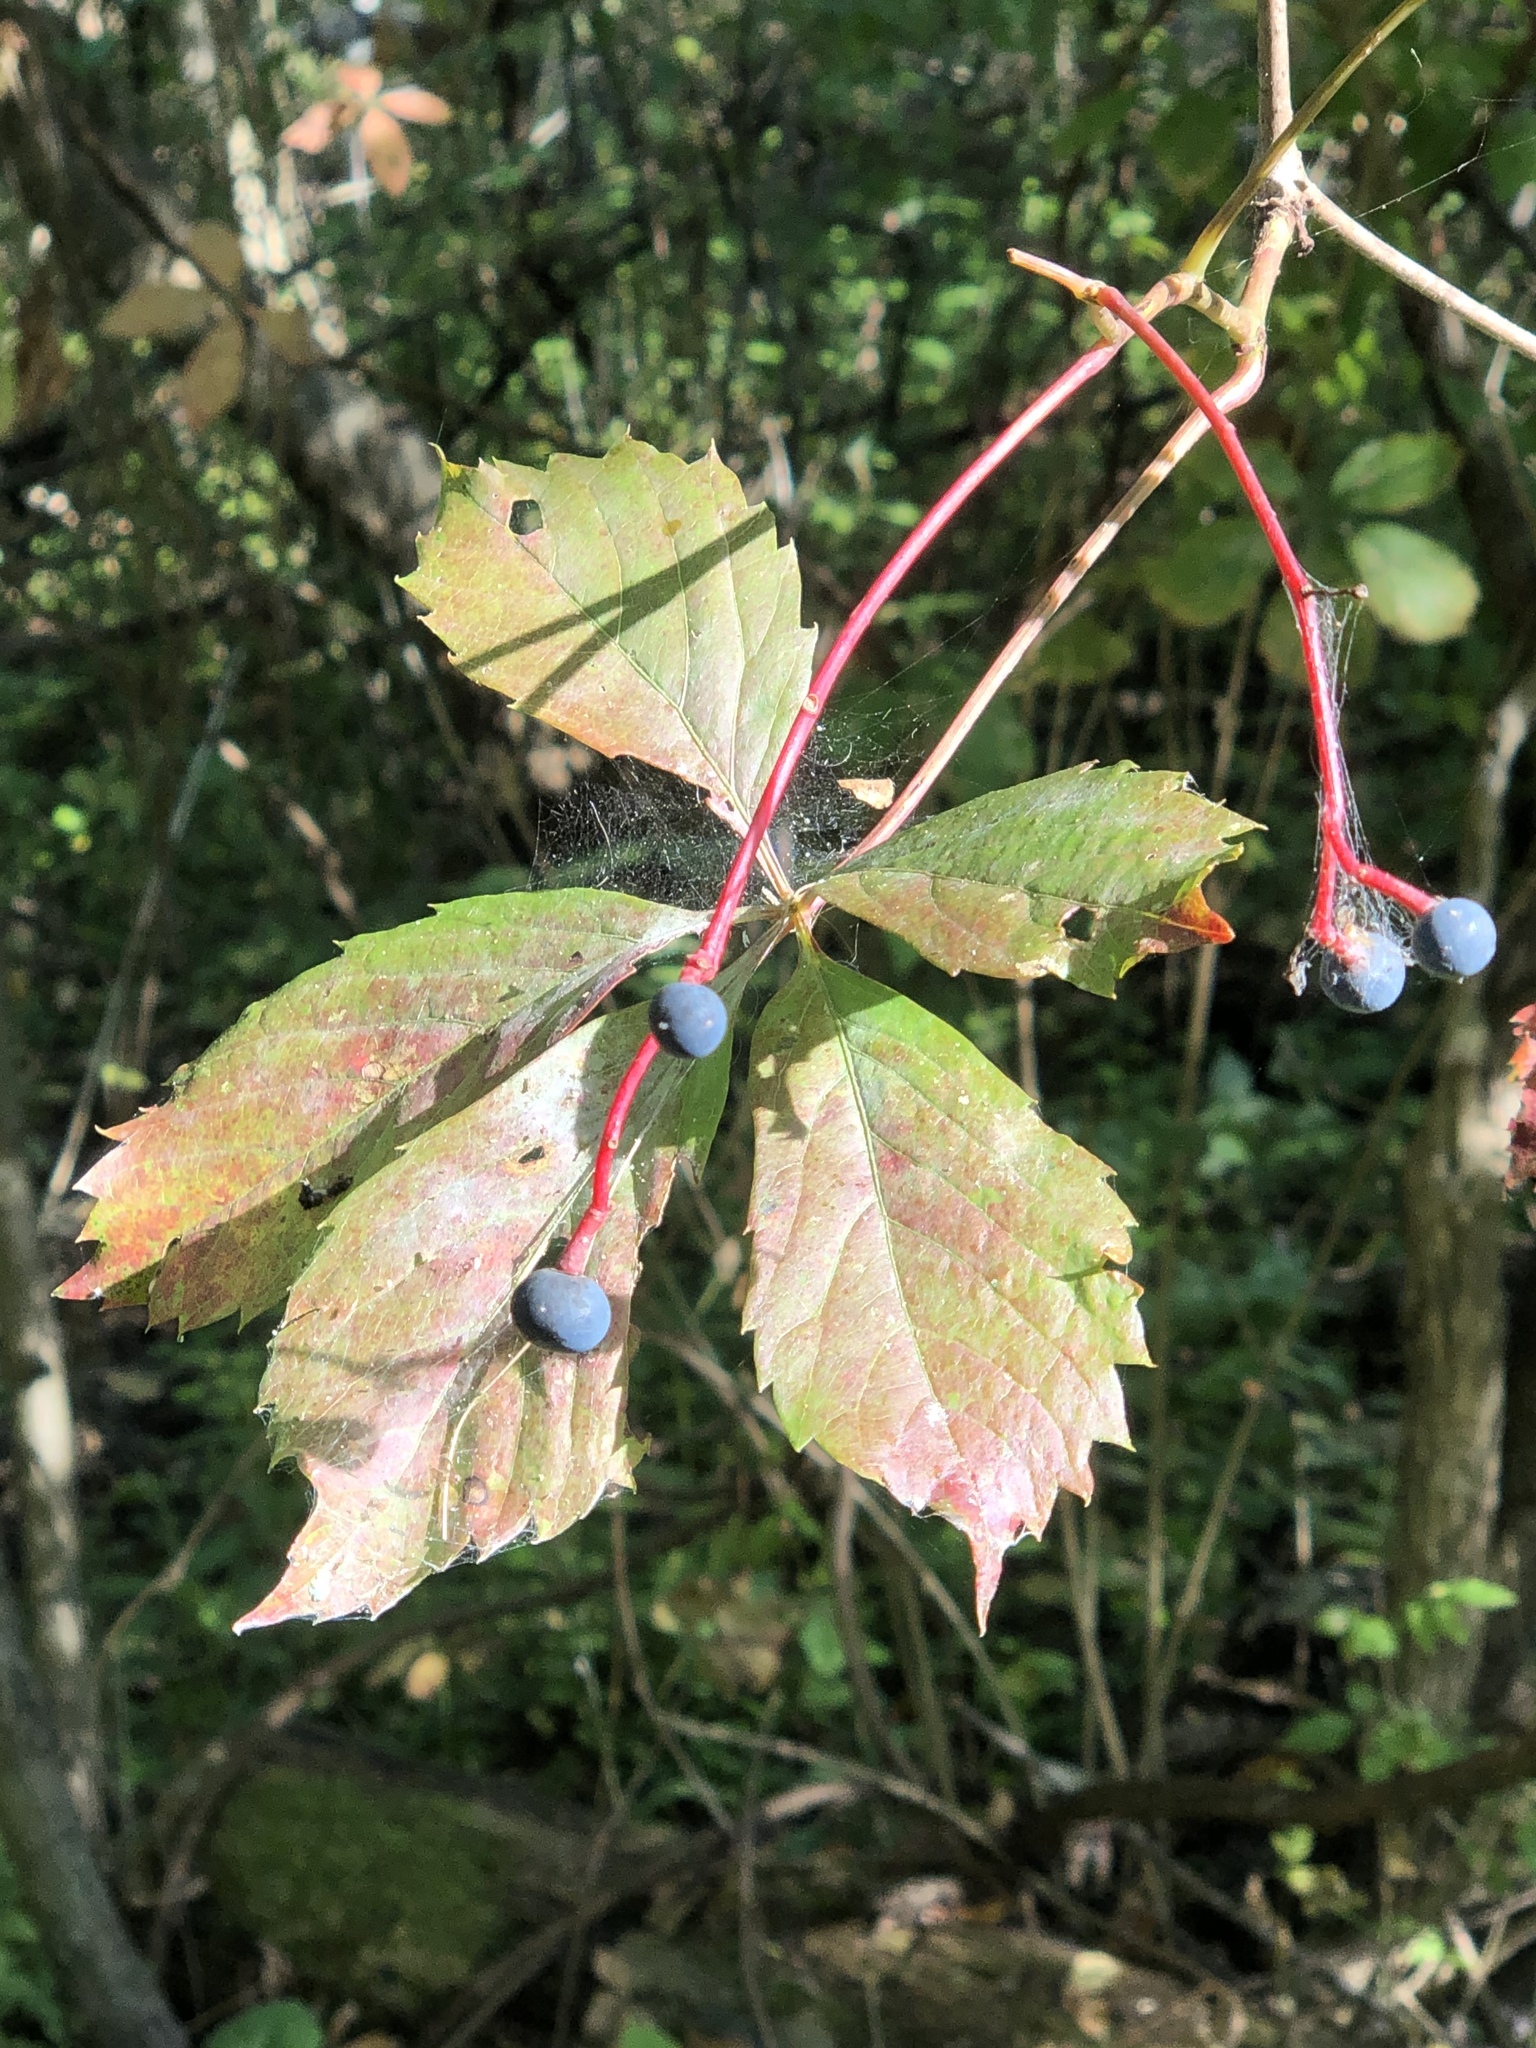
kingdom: Plantae
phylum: Tracheophyta
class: Magnoliopsida
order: Vitales
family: Vitaceae
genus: Parthenocissus
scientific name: Parthenocissus quinquefolia
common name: Virginia-creeper
